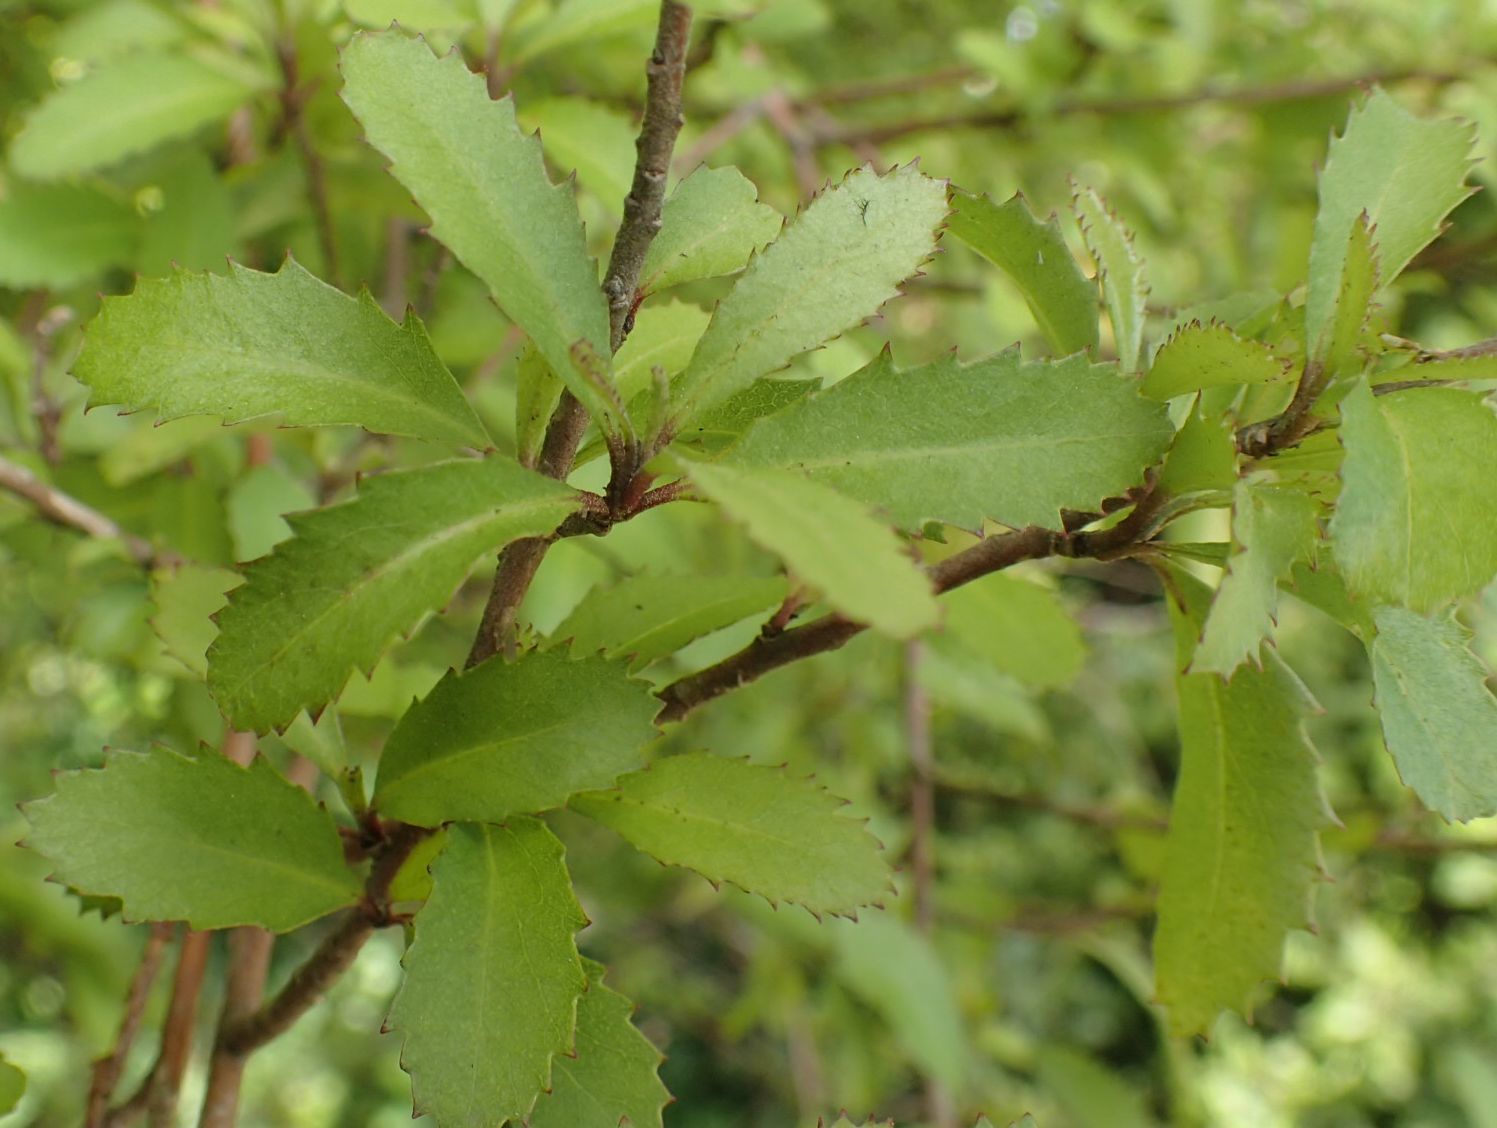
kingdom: Plantae
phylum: Tracheophyta
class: Magnoliopsida
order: Malvales
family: Malvaceae
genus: Hoheria
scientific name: Hoheria angustifolia
